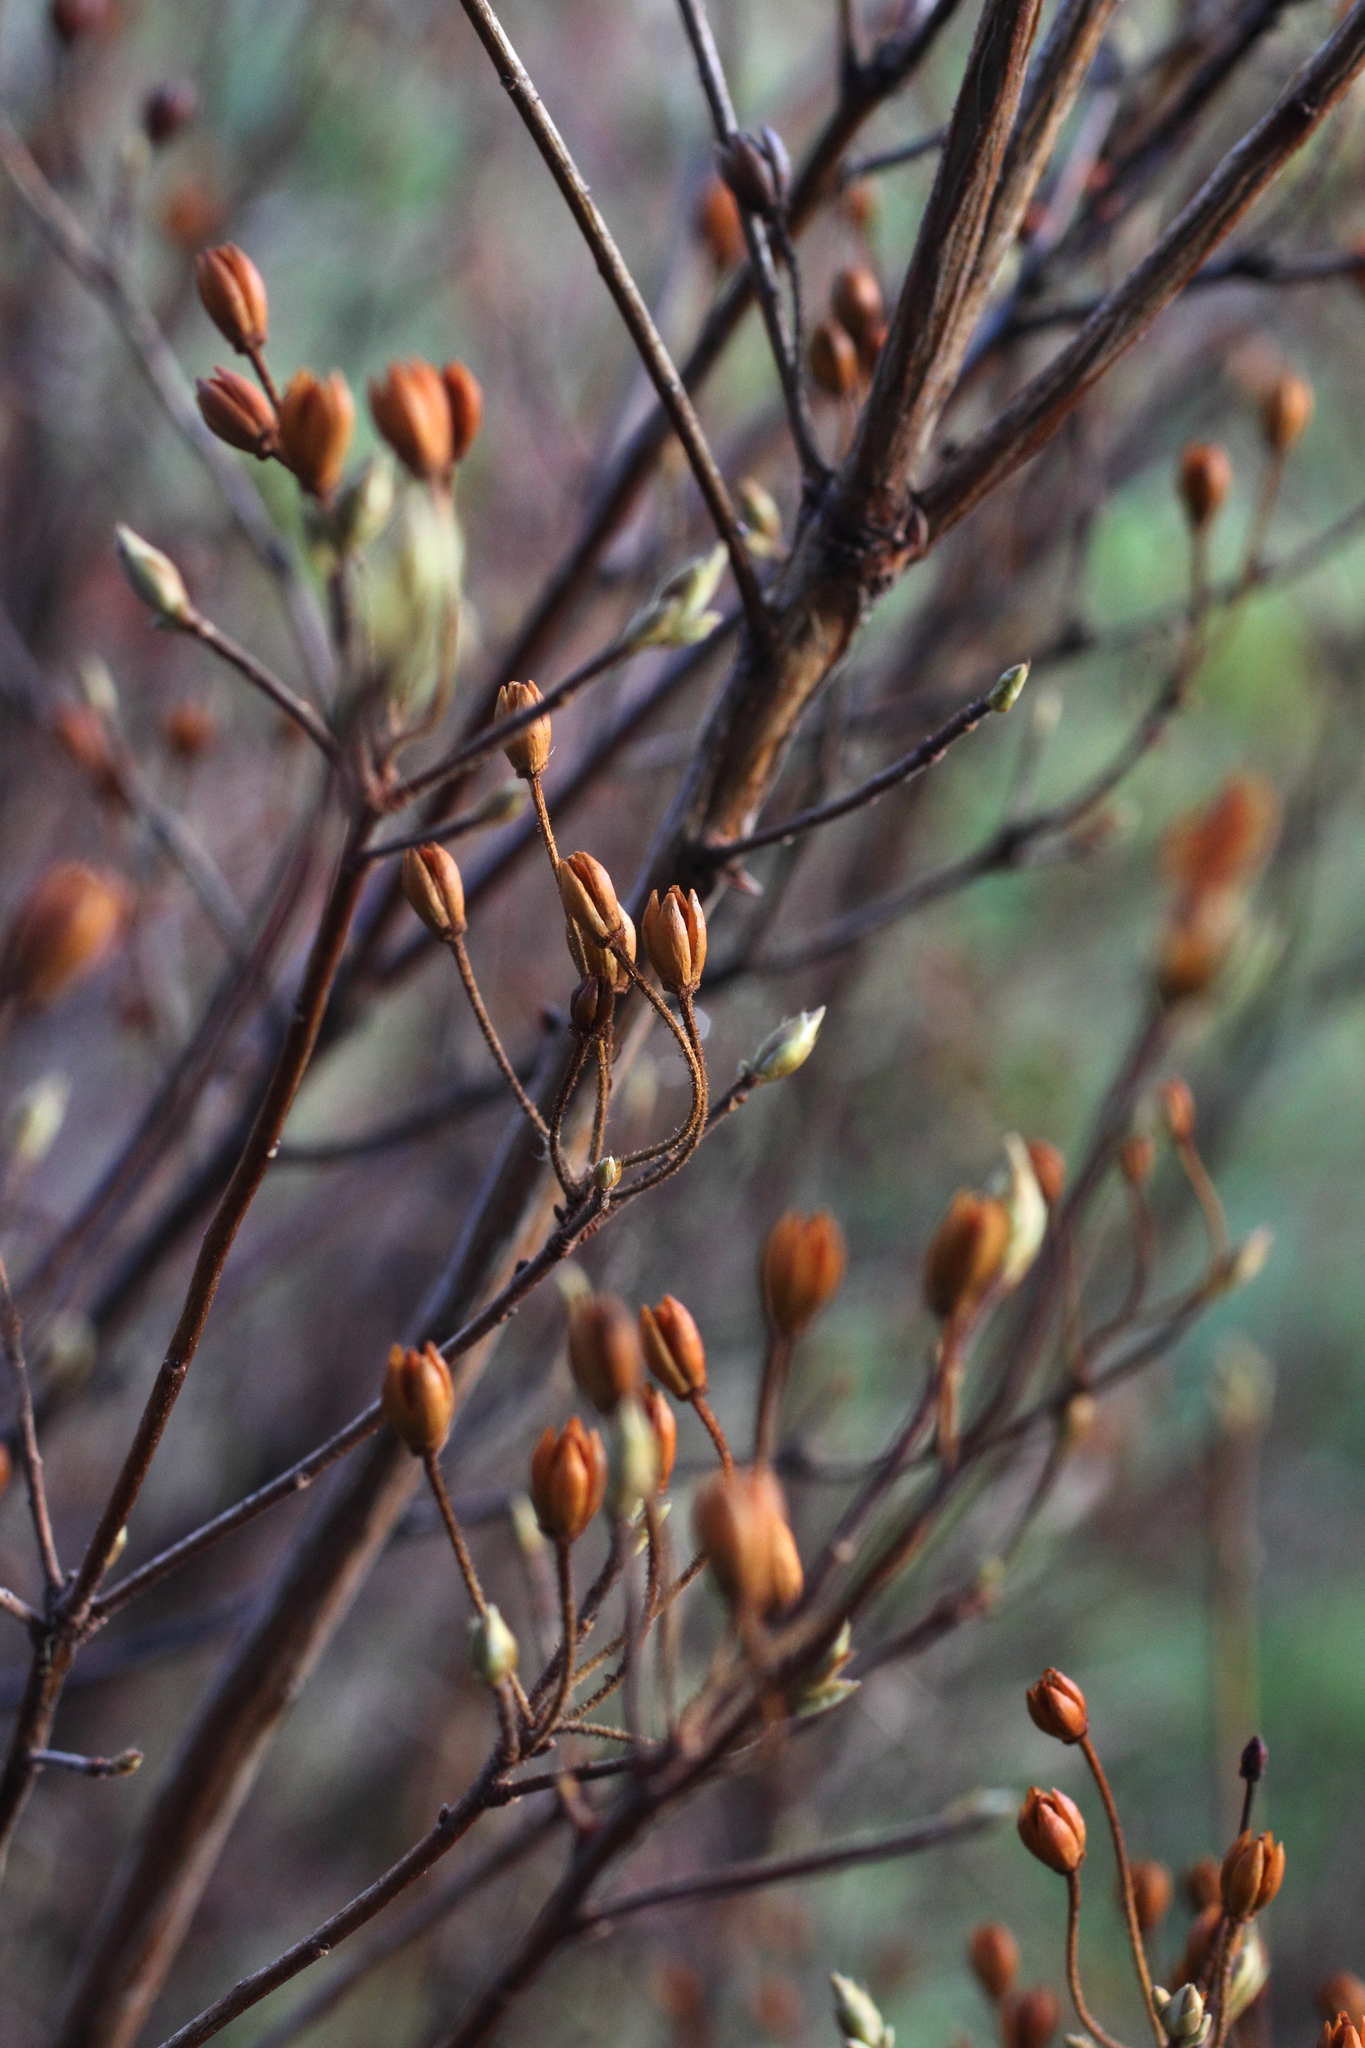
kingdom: Plantae
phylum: Tracheophyta
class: Magnoliopsida
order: Ericales
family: Ericaceae
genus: Rhododendron
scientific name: Rhododendron menziesii
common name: Pacific menziesia
